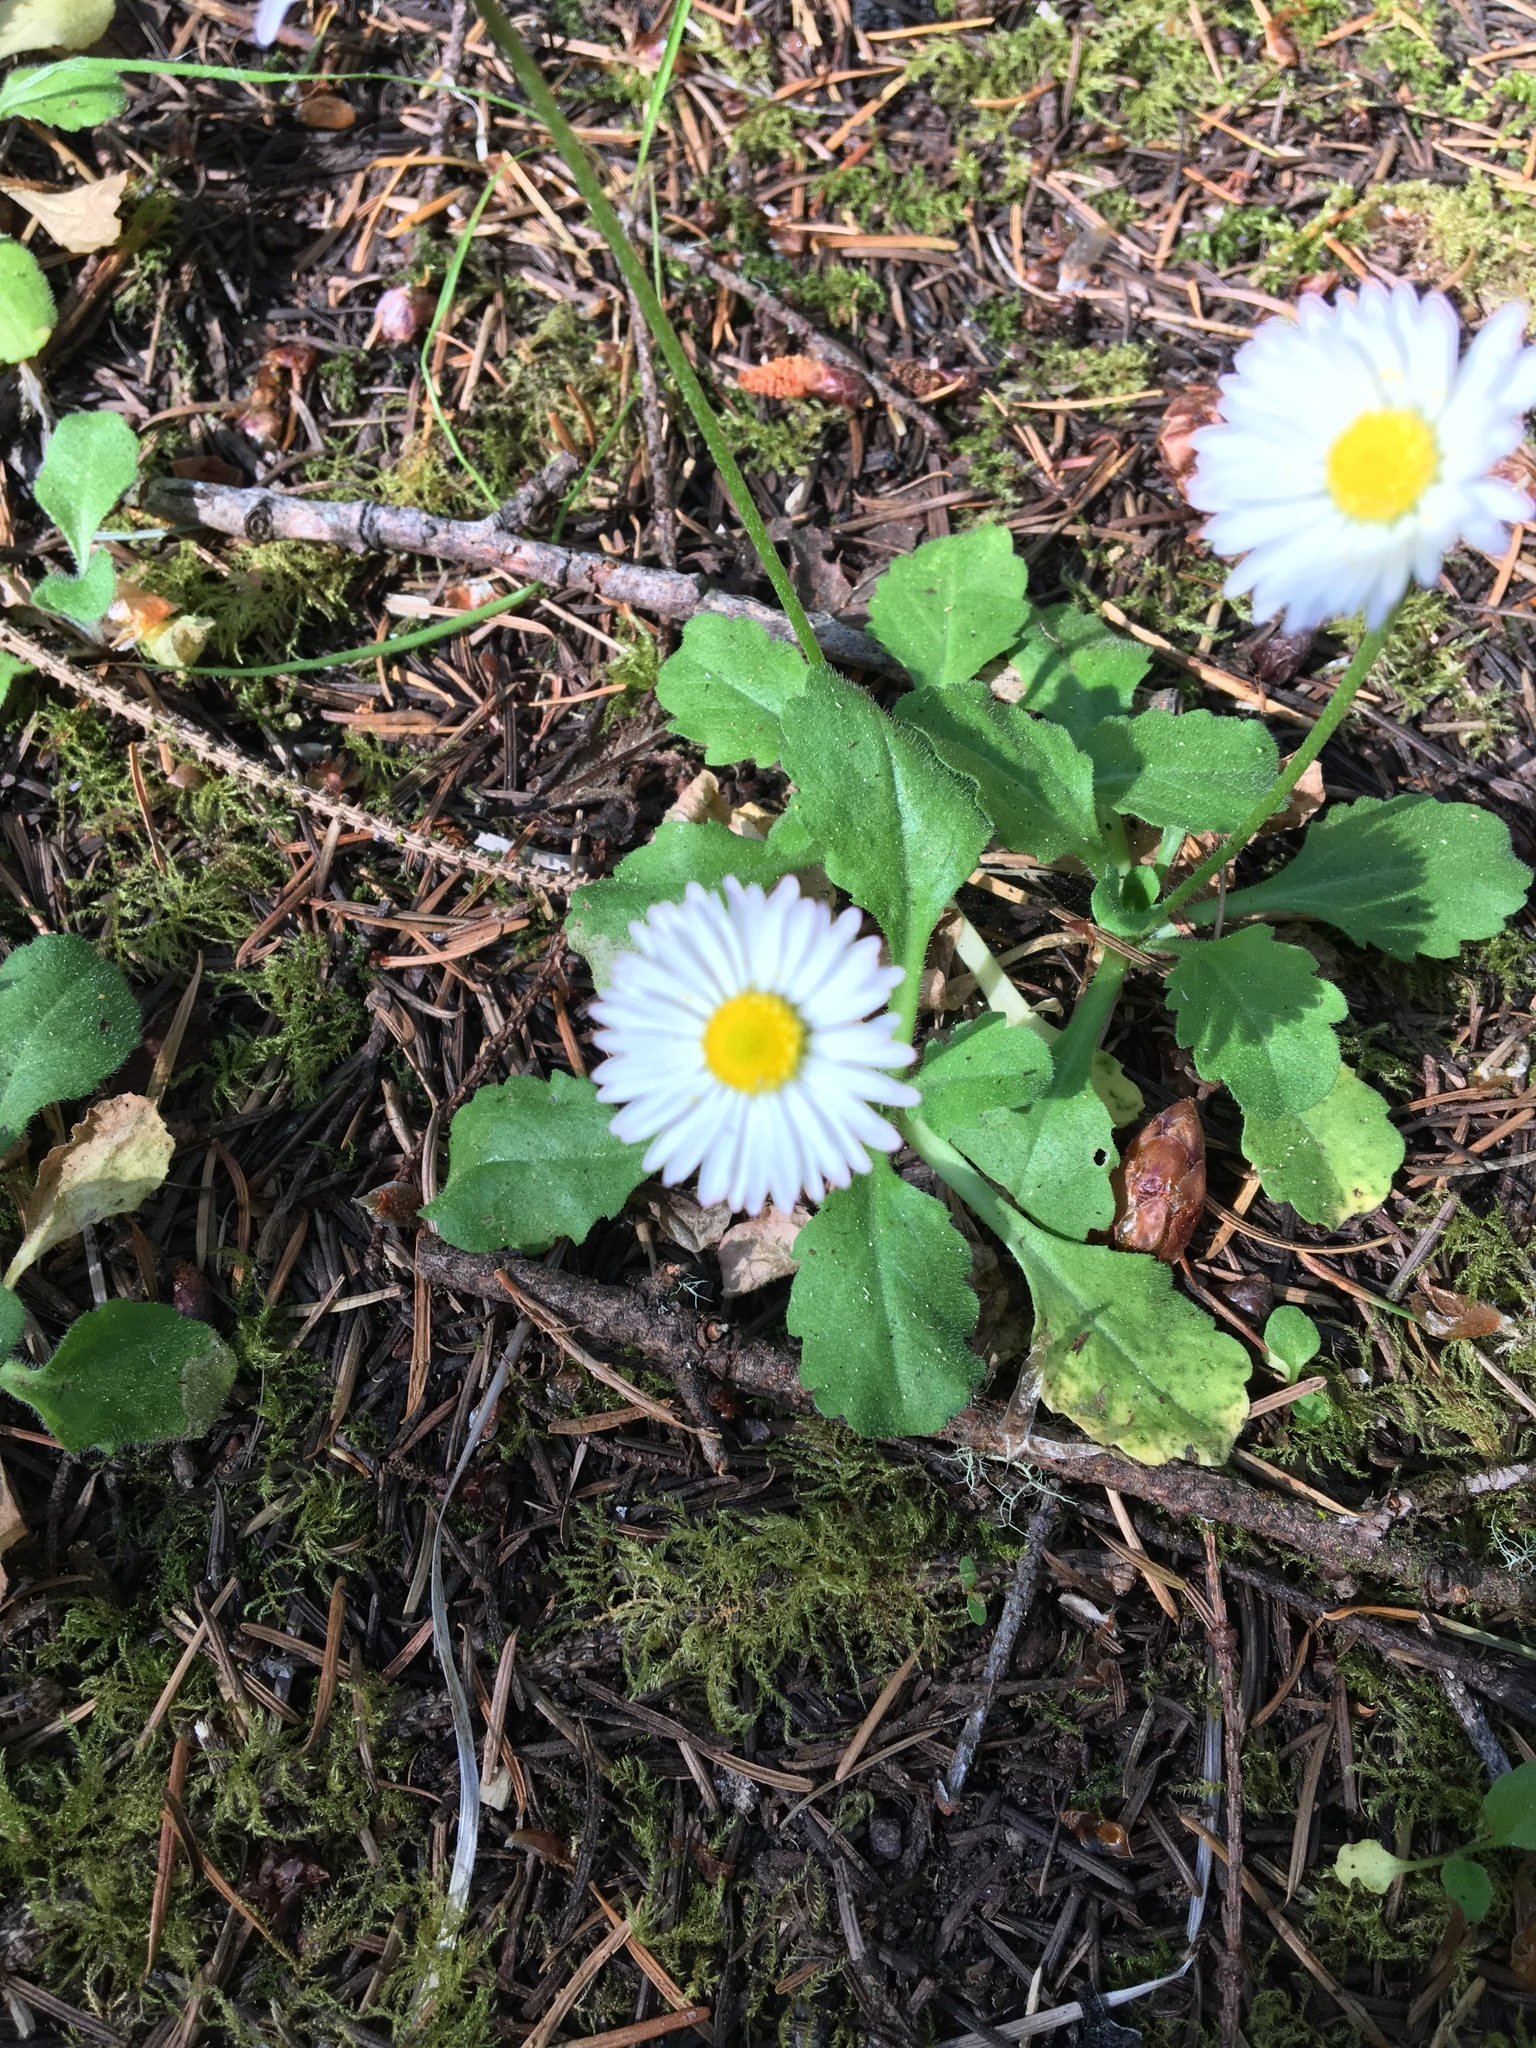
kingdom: Plantae
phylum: Tracheophyta
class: Magnoliopsida
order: Asterales
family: Asteraceae
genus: Bellis
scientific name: Bellis perennis
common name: Lawndaisy
